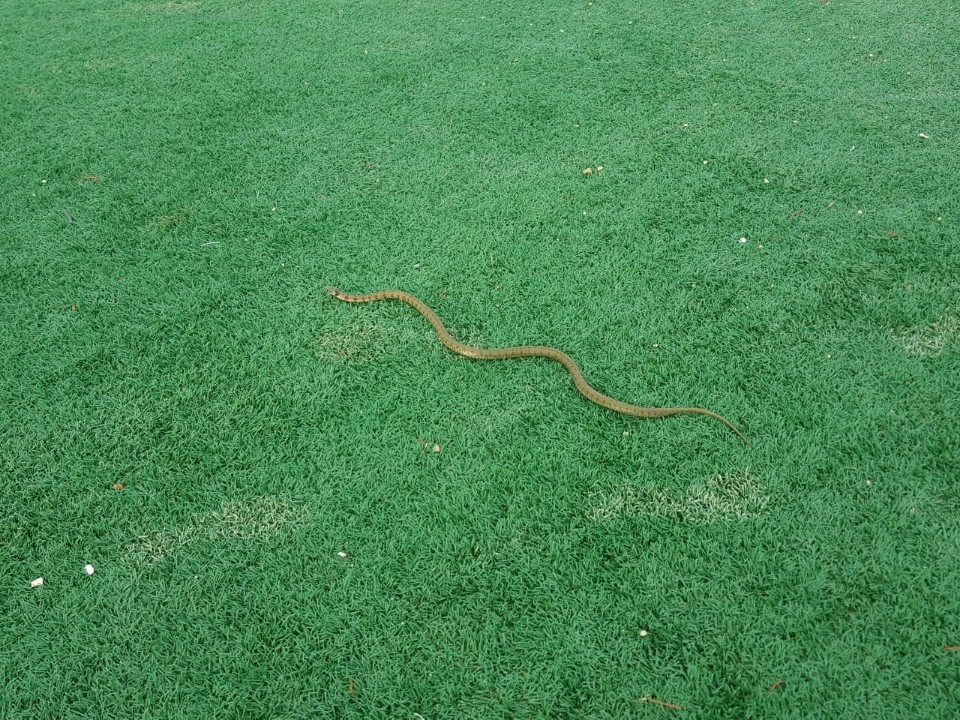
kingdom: Animalia
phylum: Chordata
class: Squamata
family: Colubridae
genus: Rhabdophis
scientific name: Rhabdophis tigrinus
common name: Tiger keelback
